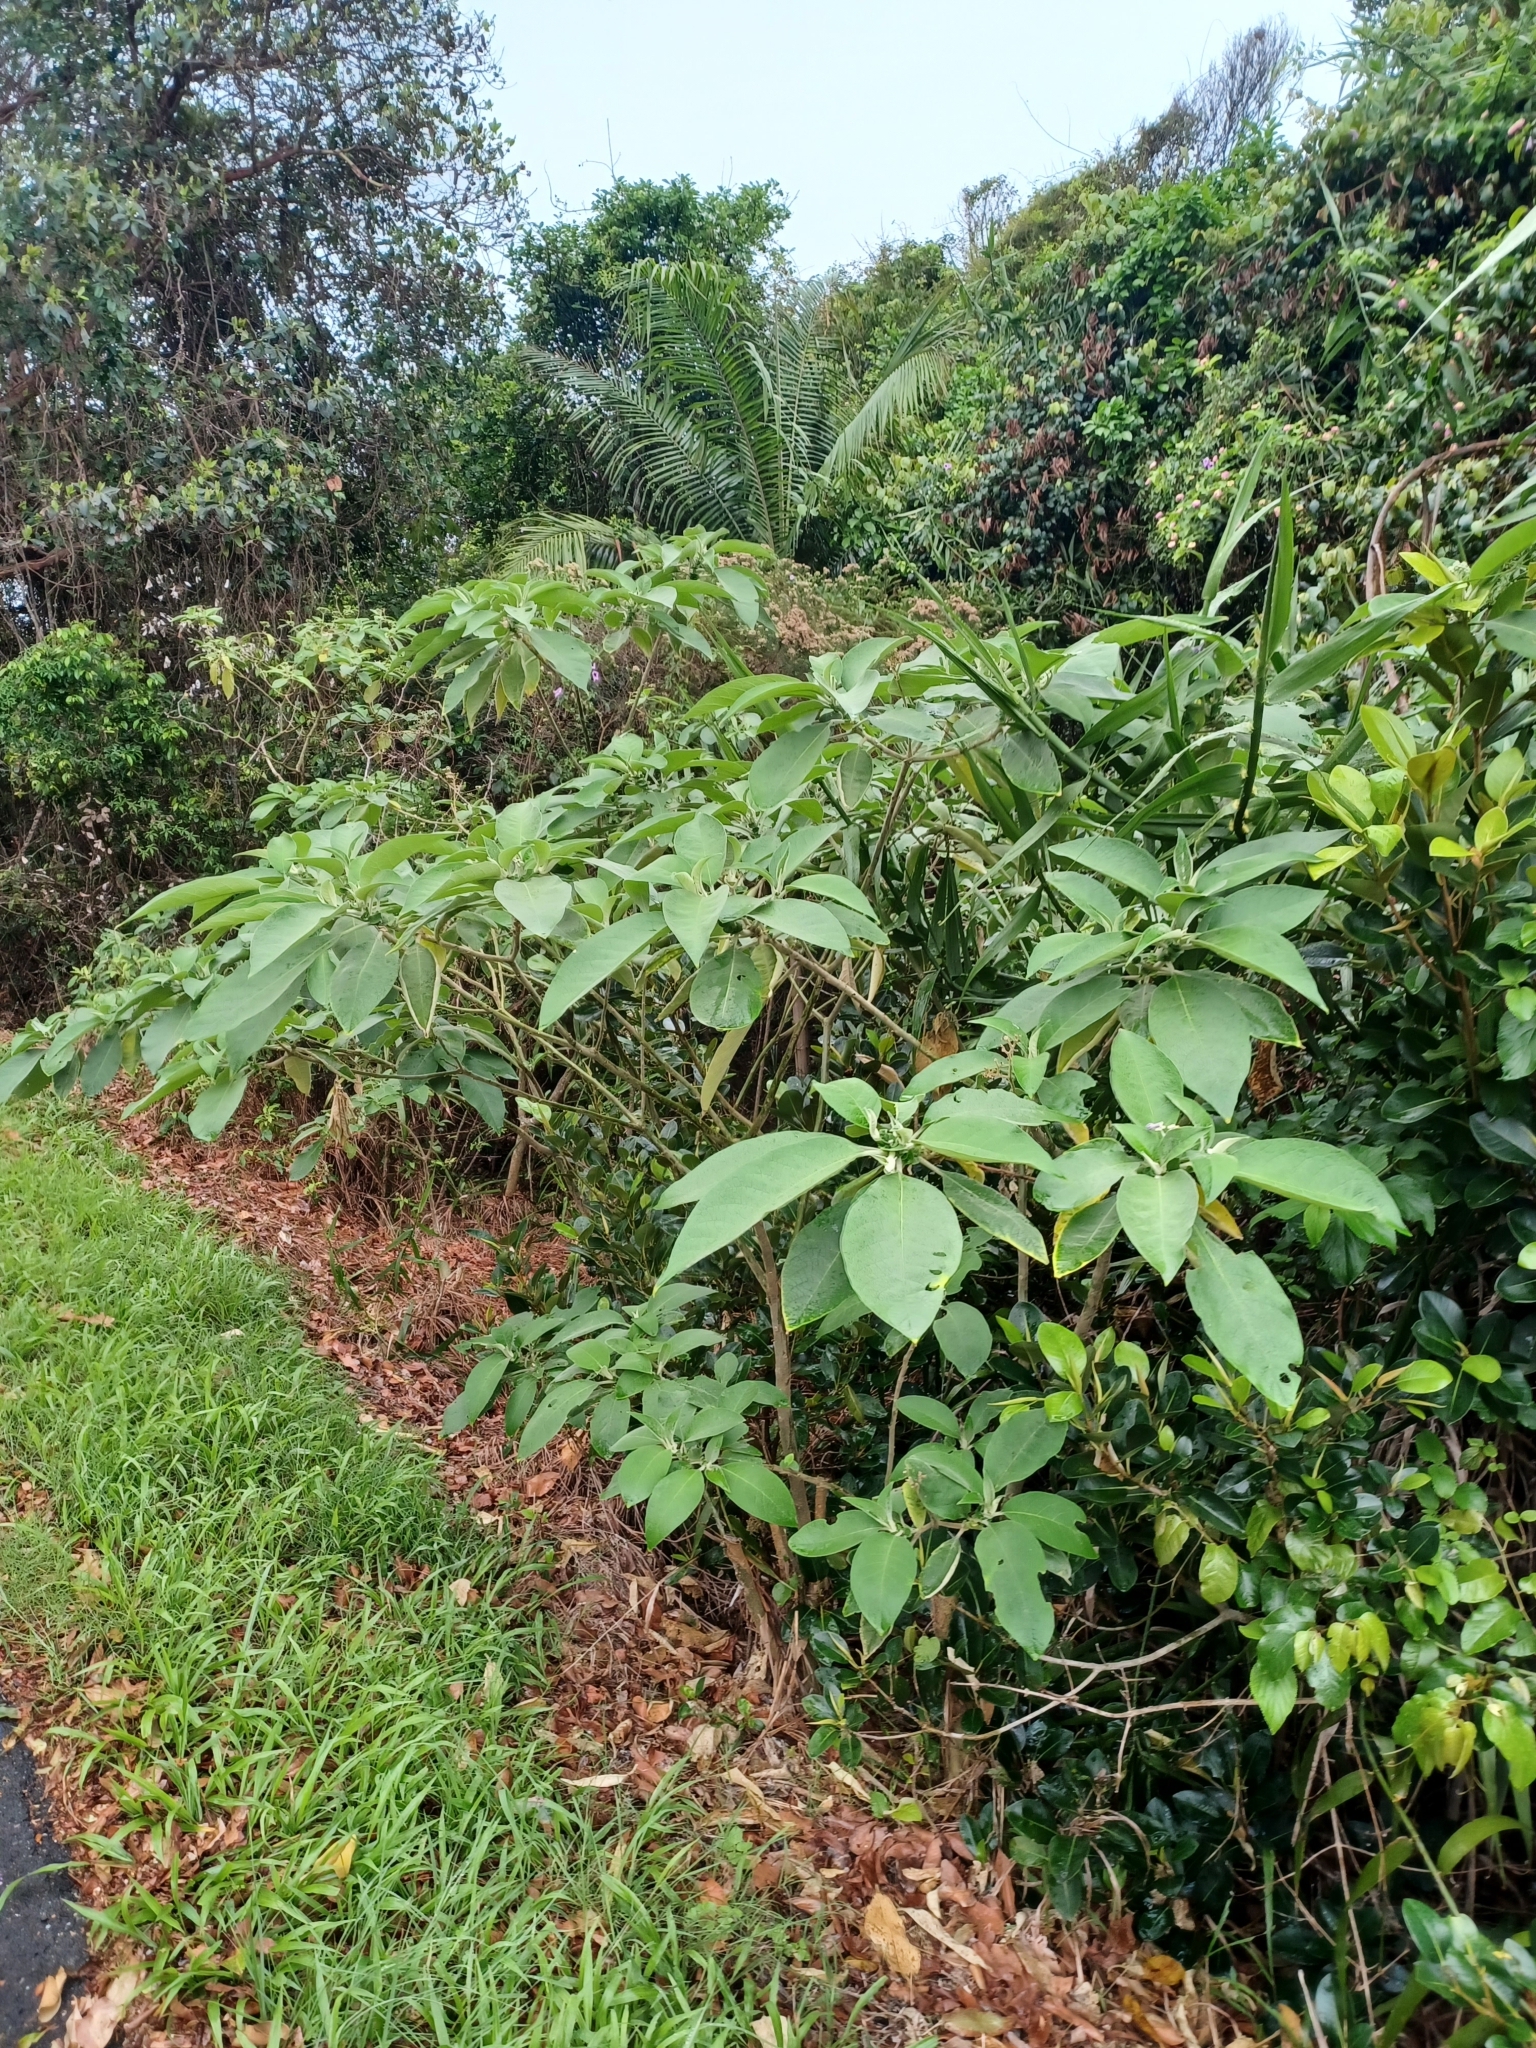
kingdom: Plantae
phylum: Tracheophyta
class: Magnoliopsida
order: Solanales
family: Solanaceae
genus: Solanum
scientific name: Solanum mauritianum
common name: Earleaf nightshade
